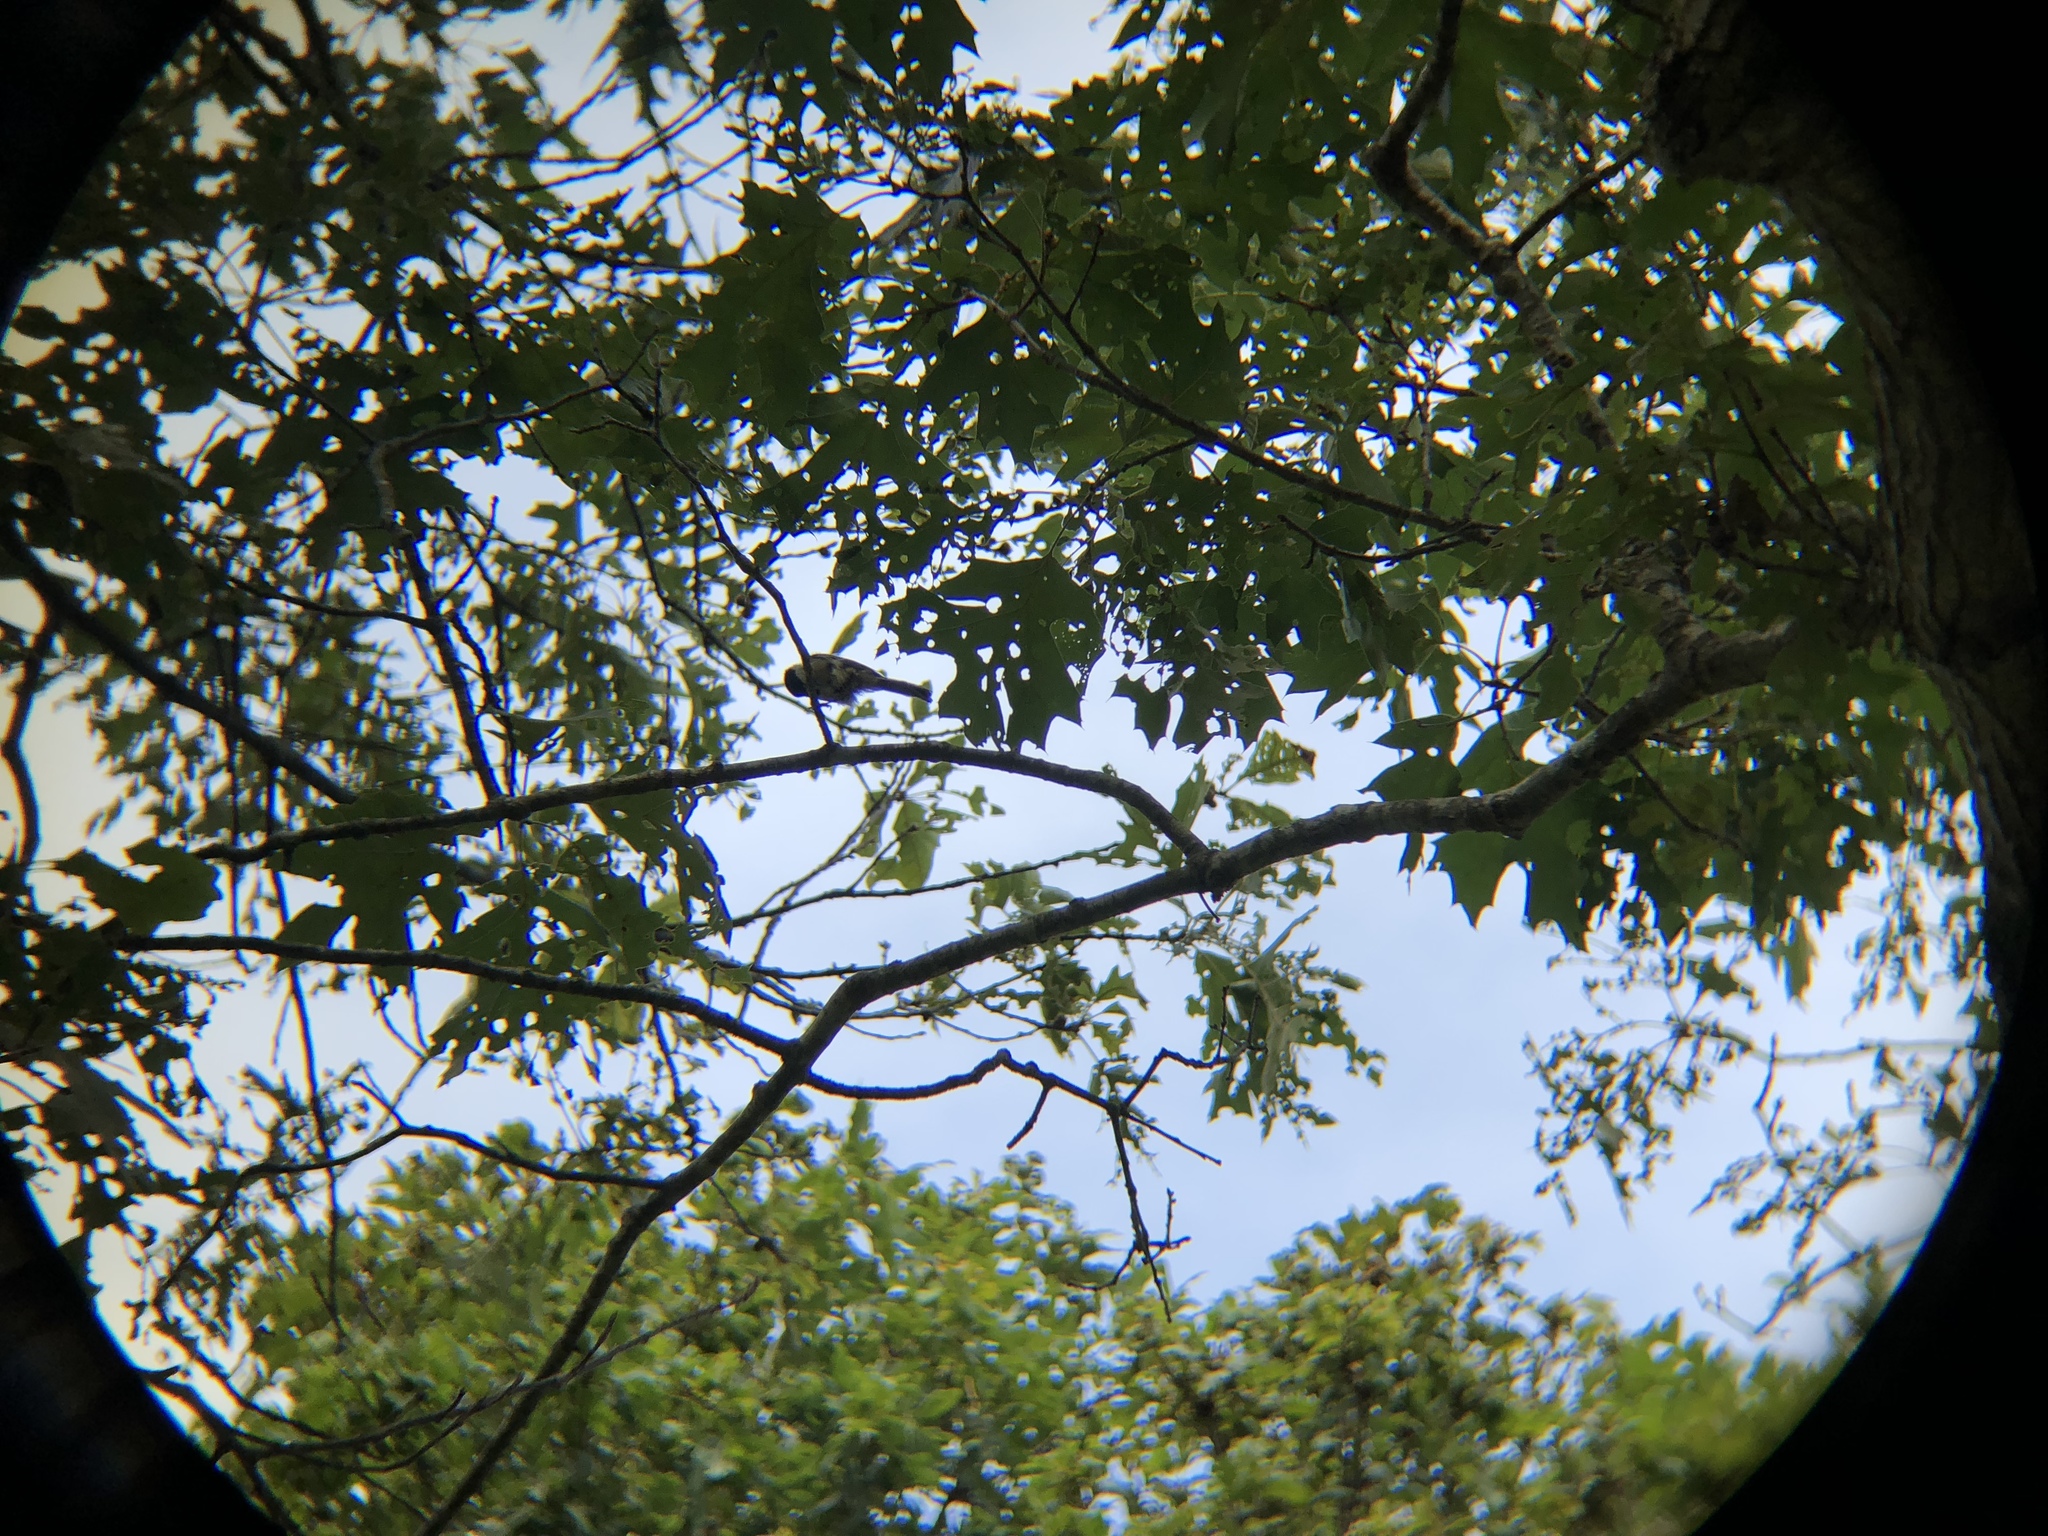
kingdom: Animalia
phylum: Chordata
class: Aves
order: Passeriformes
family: Paridae
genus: Poecile
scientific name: Poecile atricapillus
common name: Black-capped chickadee
